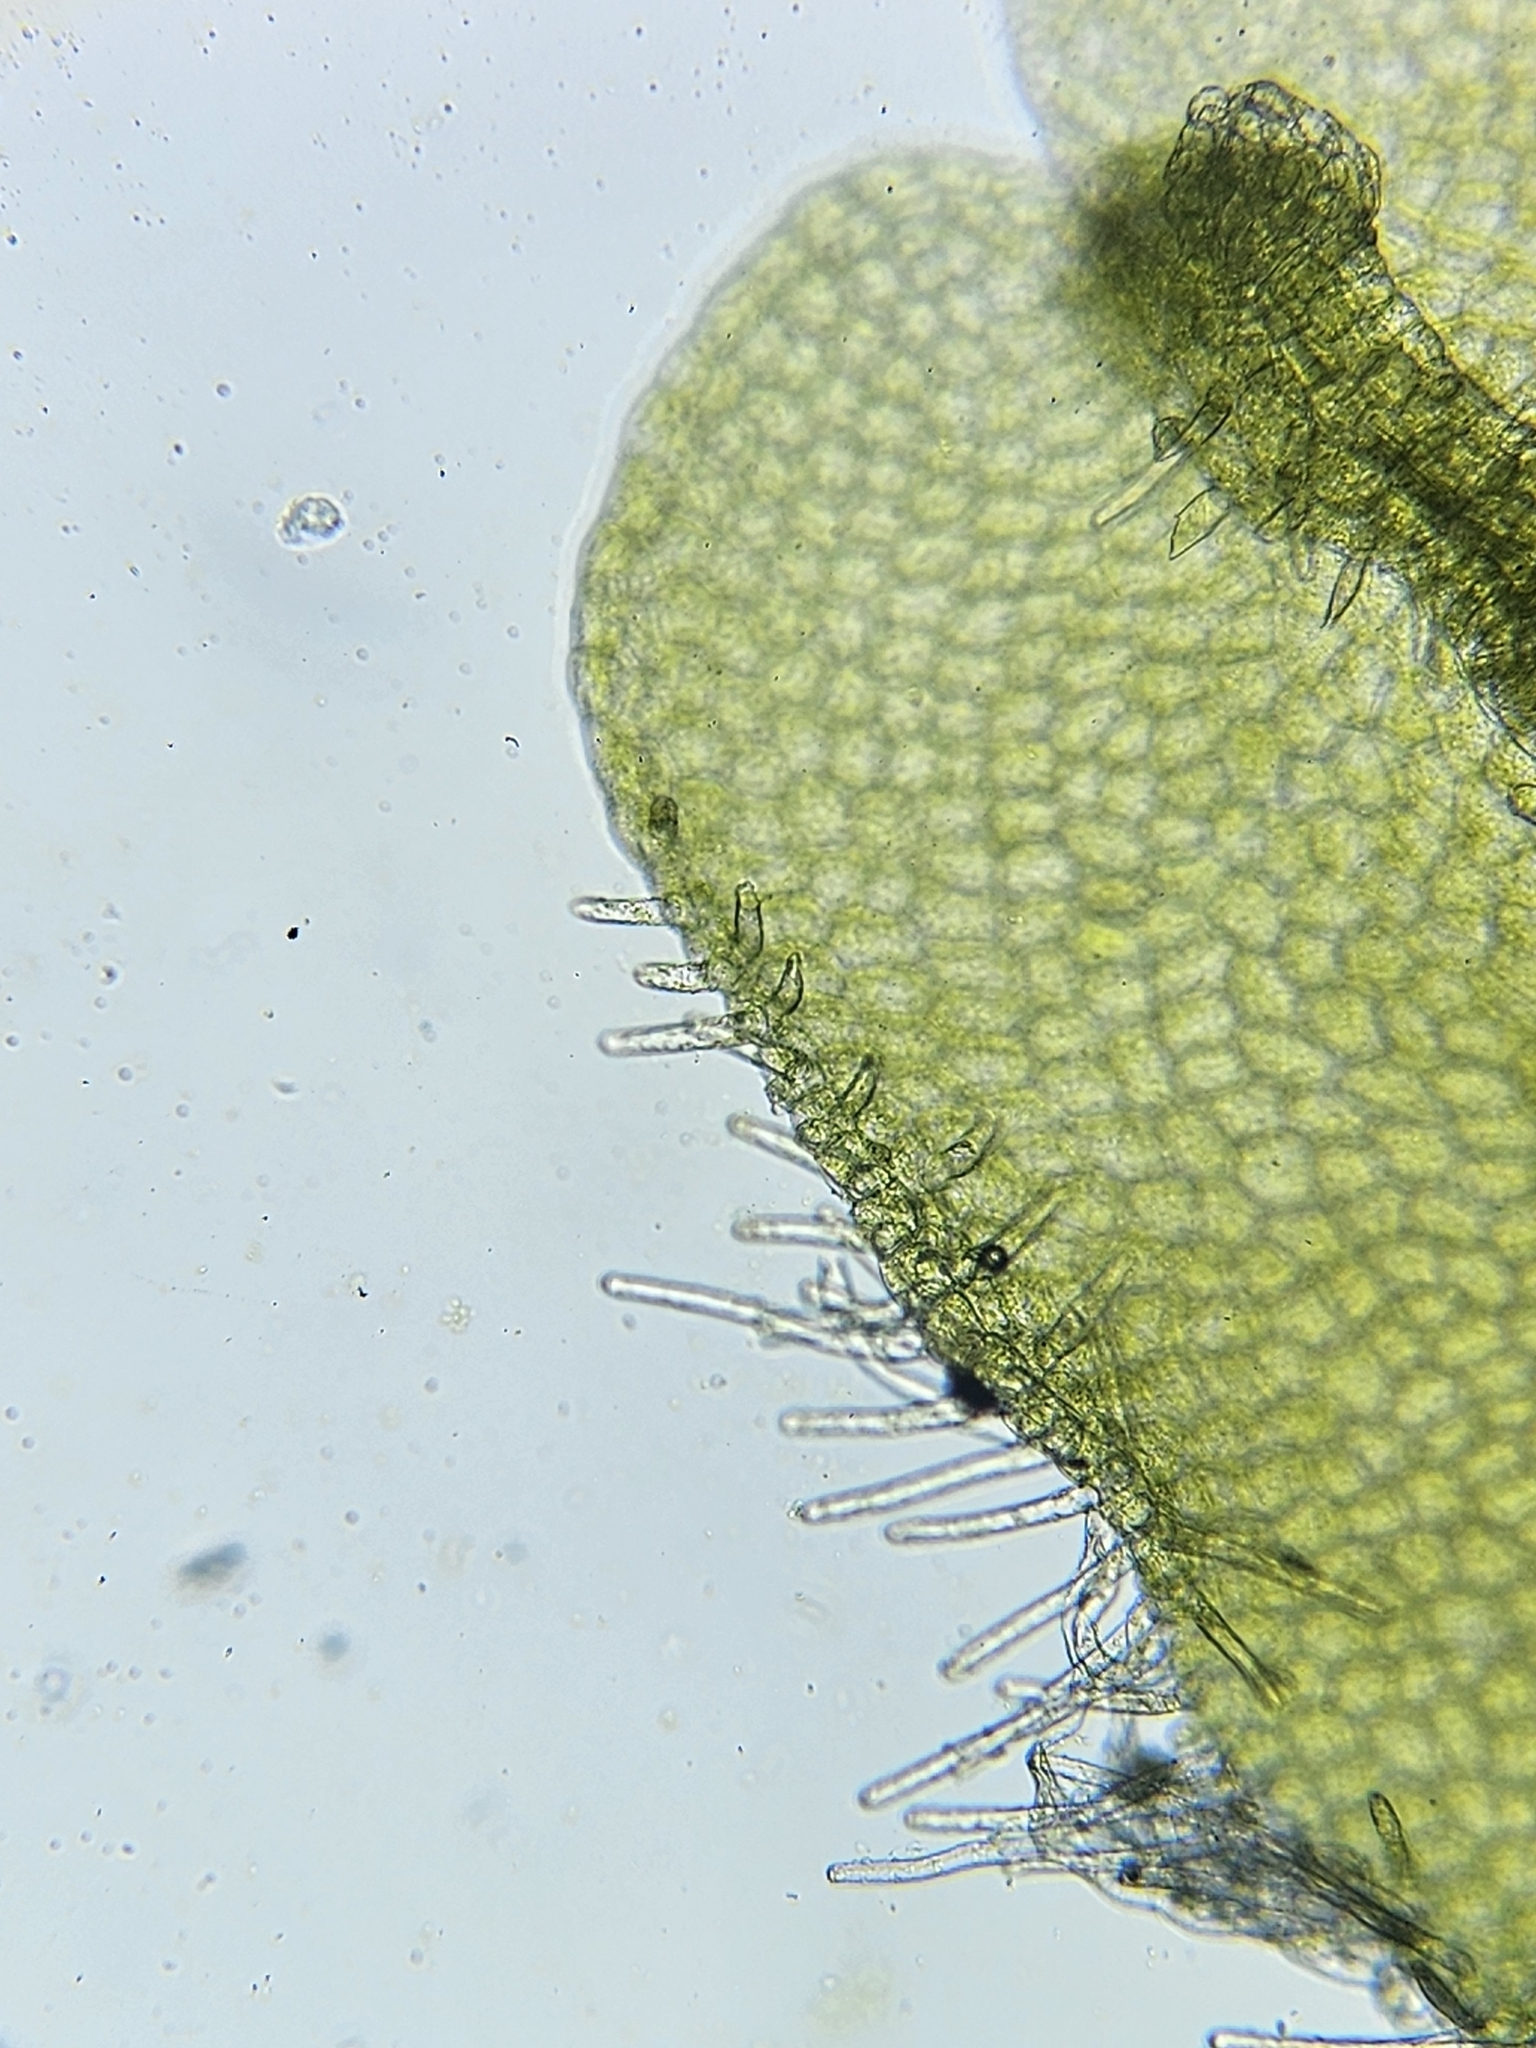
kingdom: Plantae
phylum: Marchantiophyta
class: Jungermanniopsida
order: Metzgeriales
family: Metzgeriaceae
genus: Metzgeria
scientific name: Metzgeria conjugata
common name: Rock veilwort
